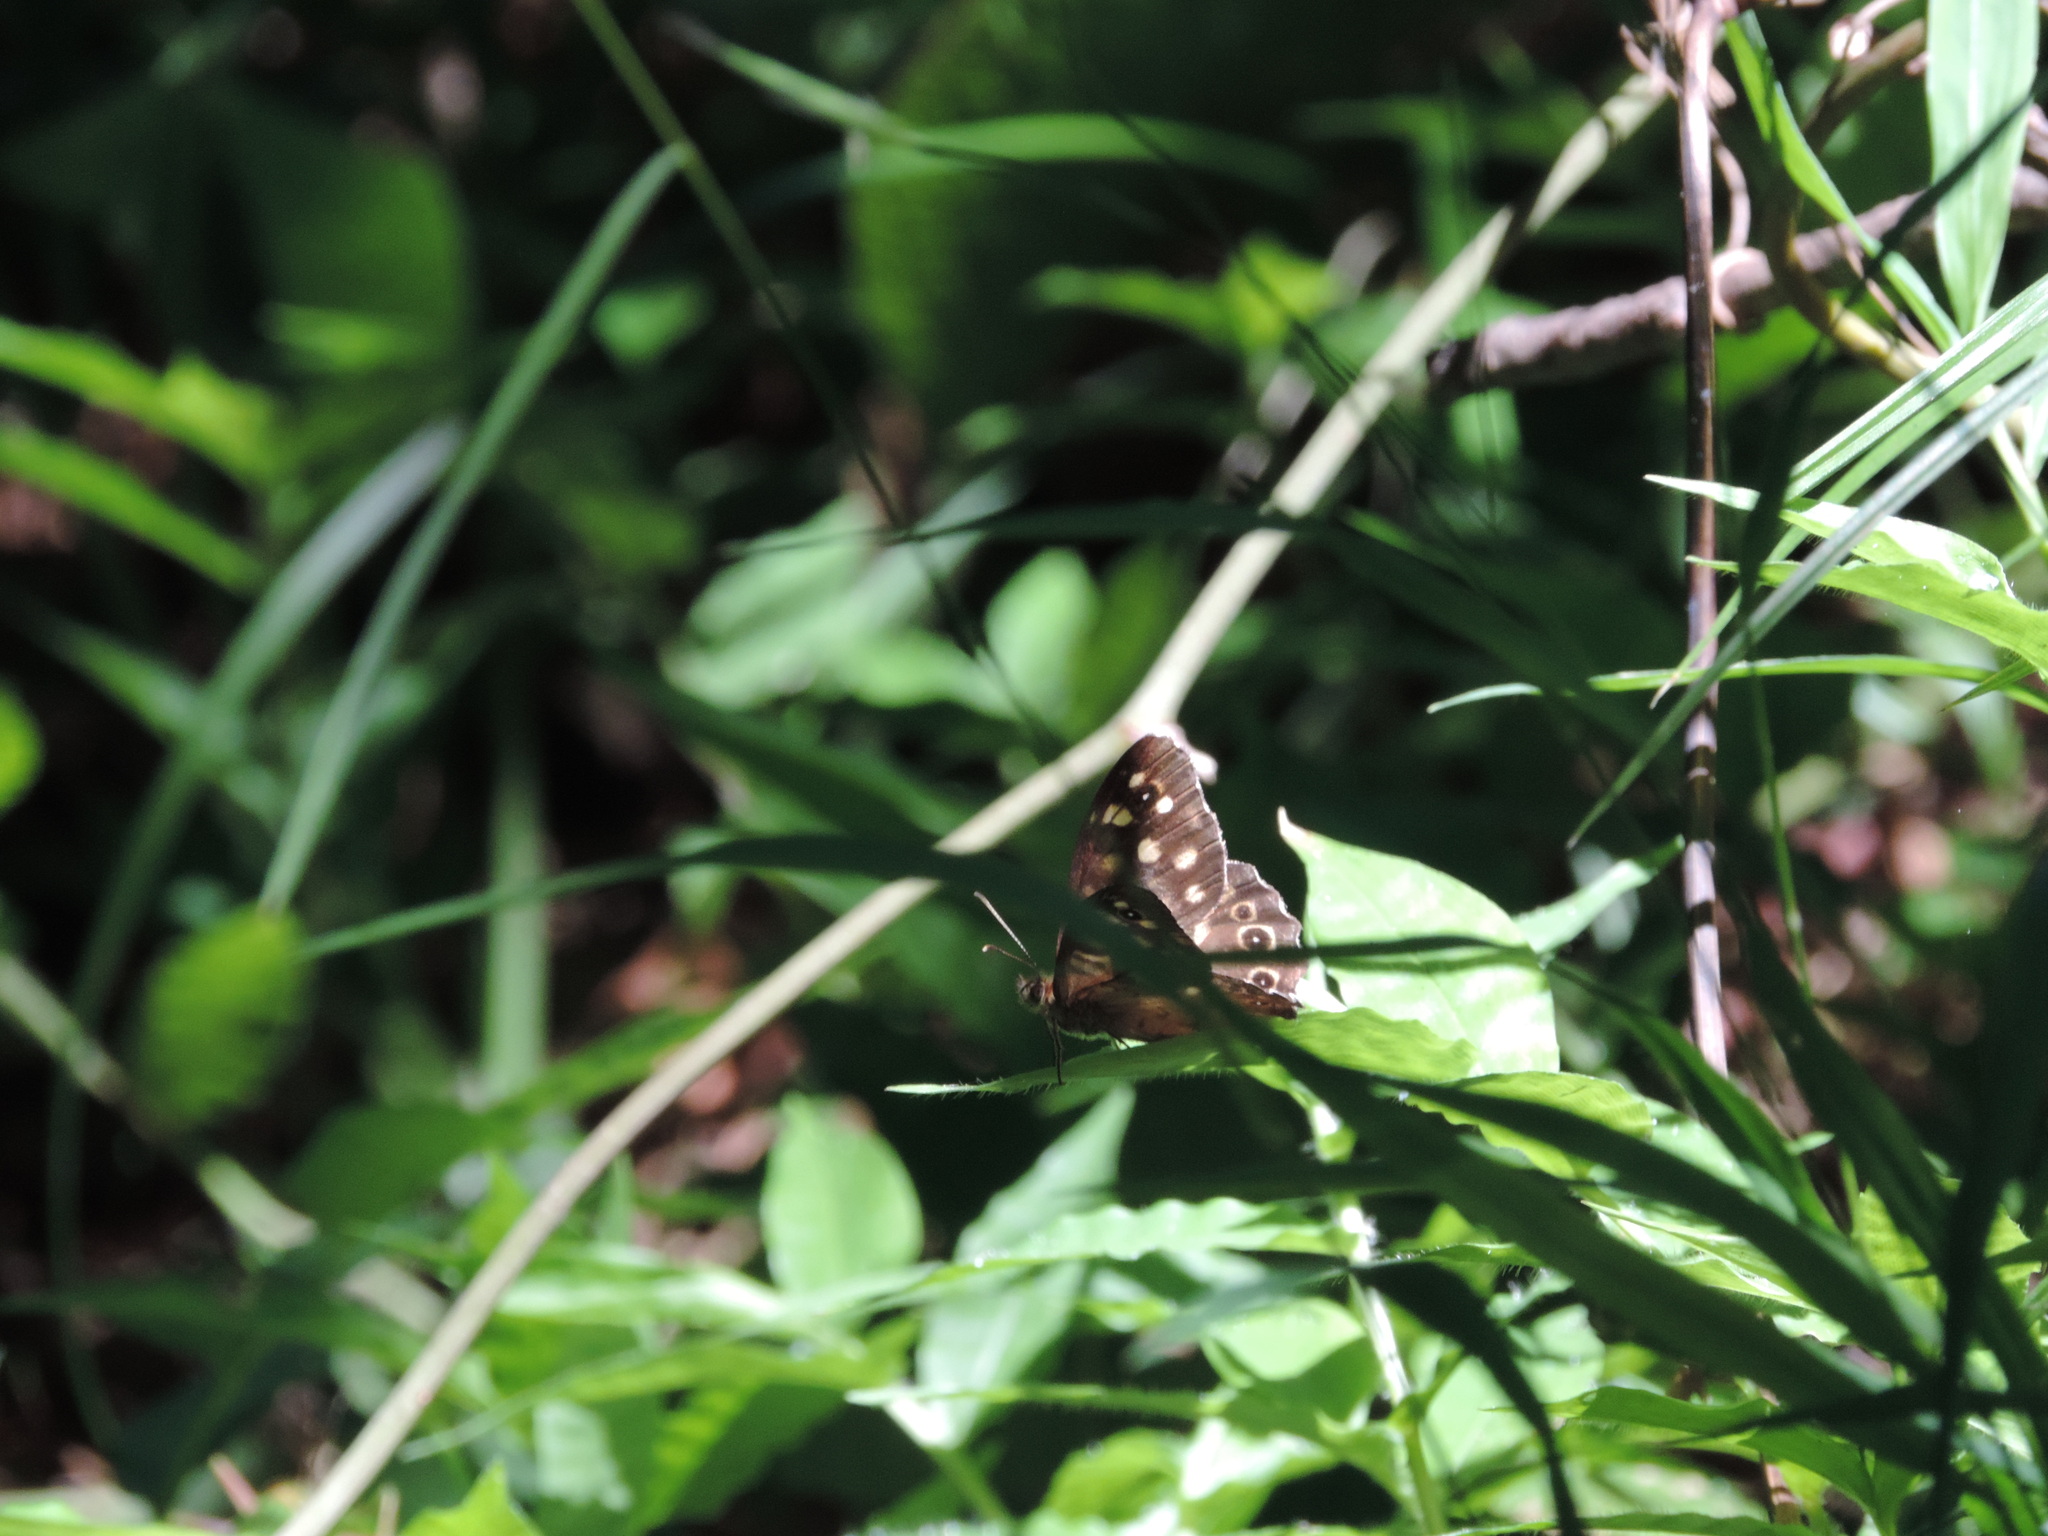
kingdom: Animalia
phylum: Arthropoda
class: Insecta
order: Lepidoptera
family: Nymphalidae
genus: Pararge
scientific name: Pararge aegeria
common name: Speckled wood
